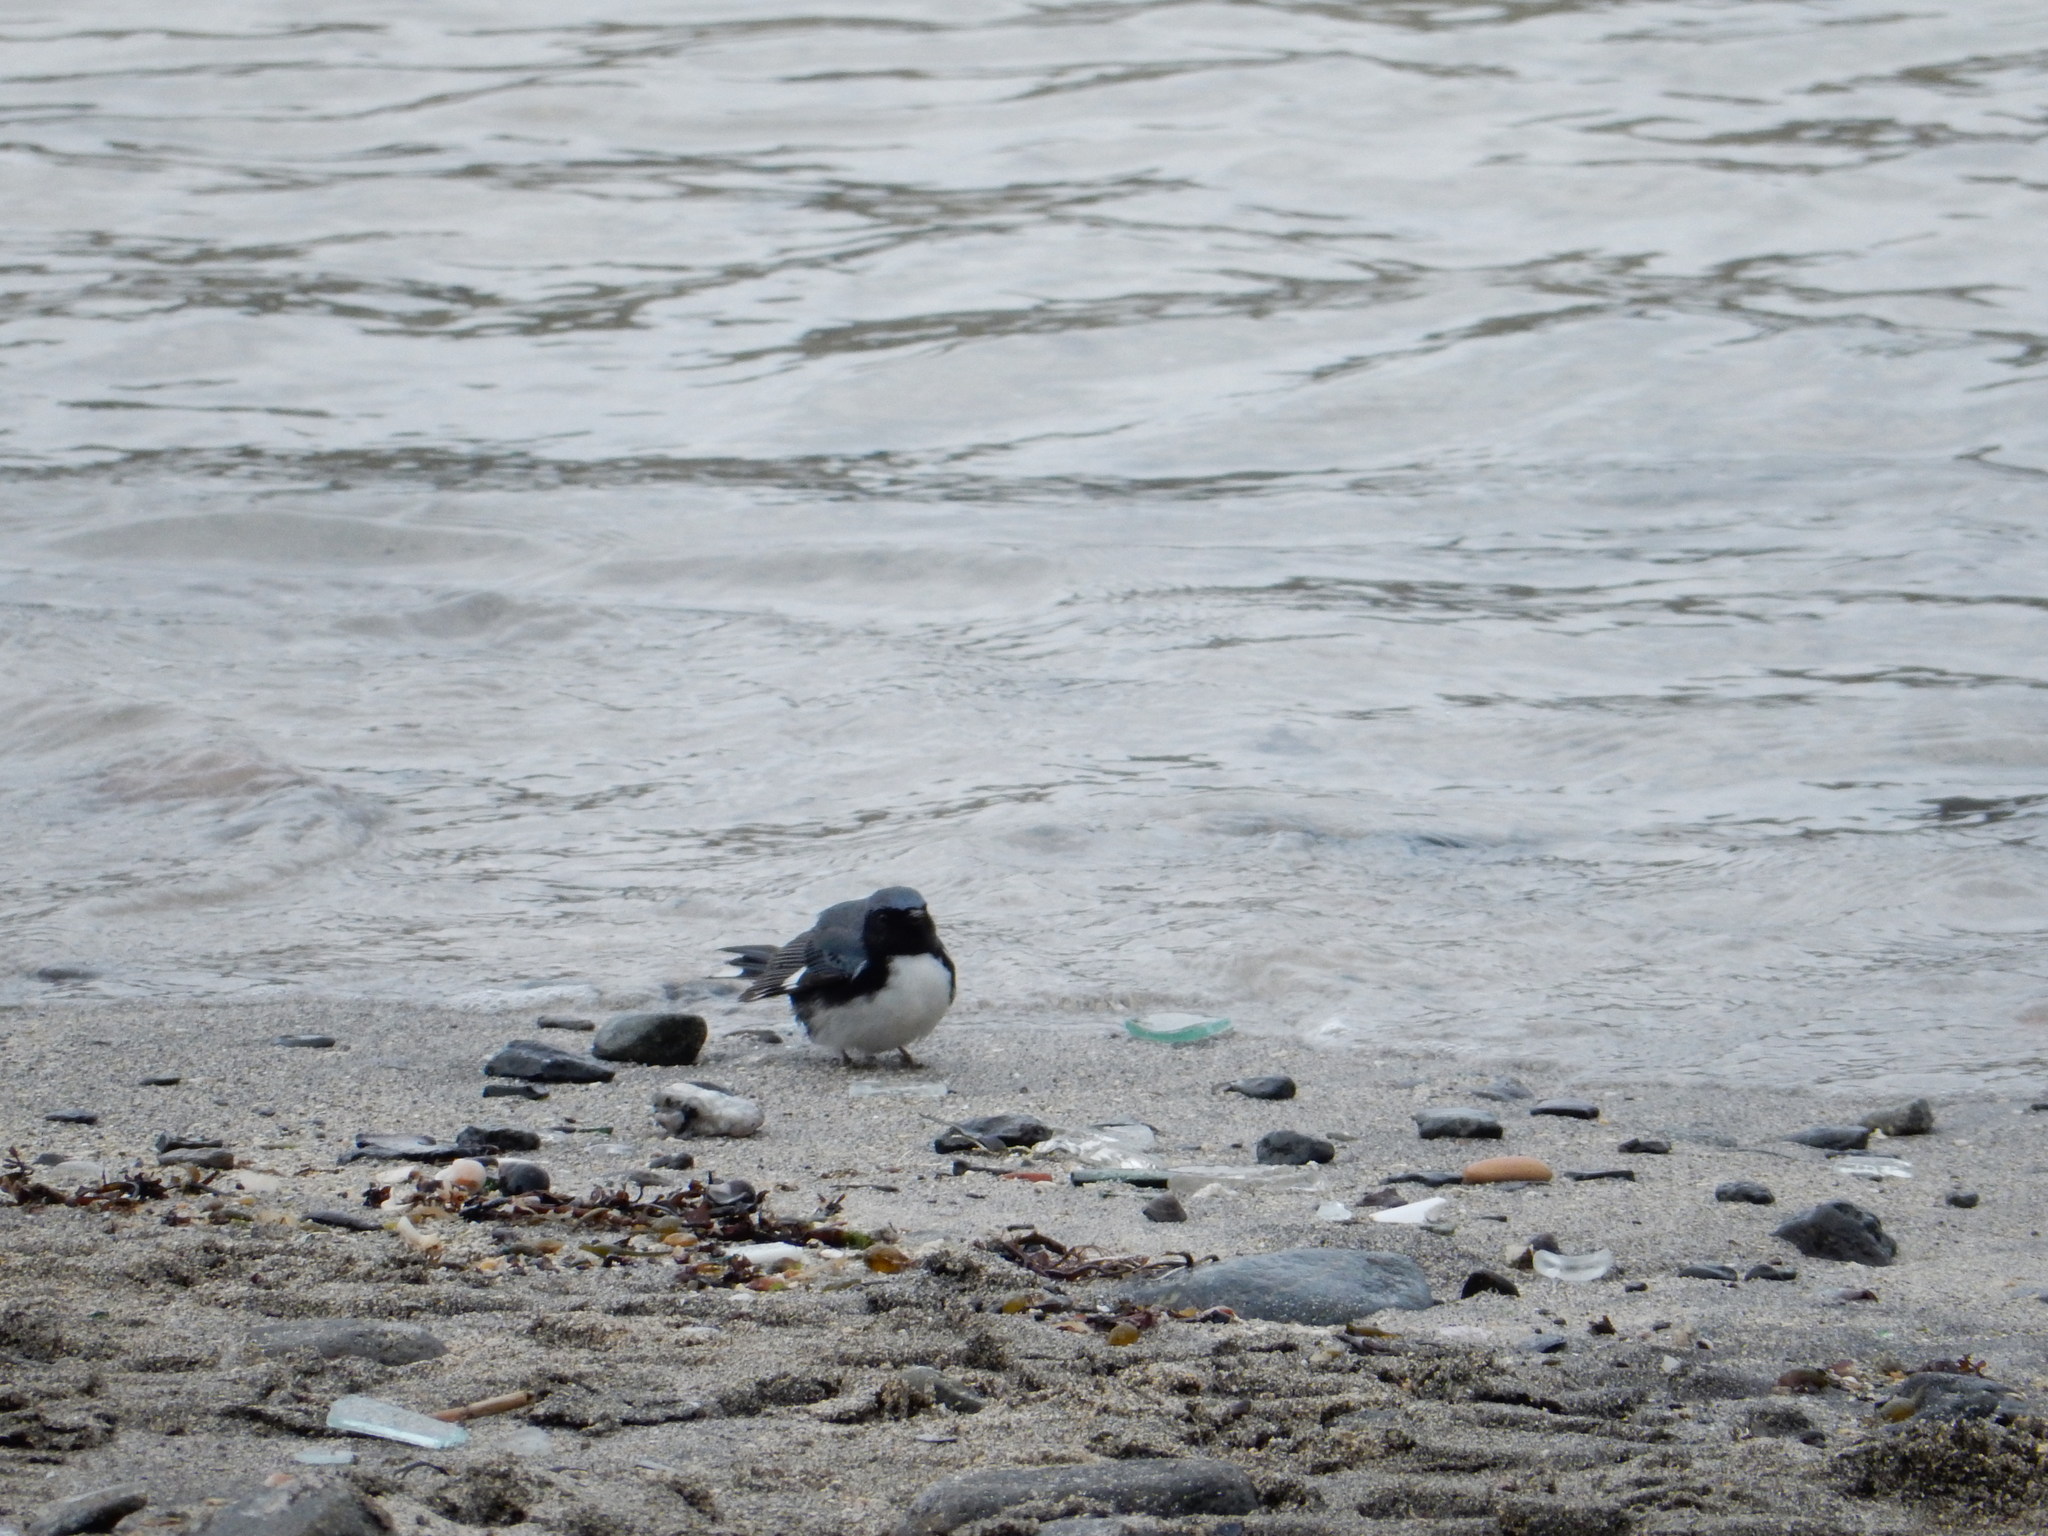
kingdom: Animalia
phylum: Chordata
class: Aves
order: Passeriformes
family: Parulidae
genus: Setophaga
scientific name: Setophaga caerulescens
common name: Black-throated blue warbler
